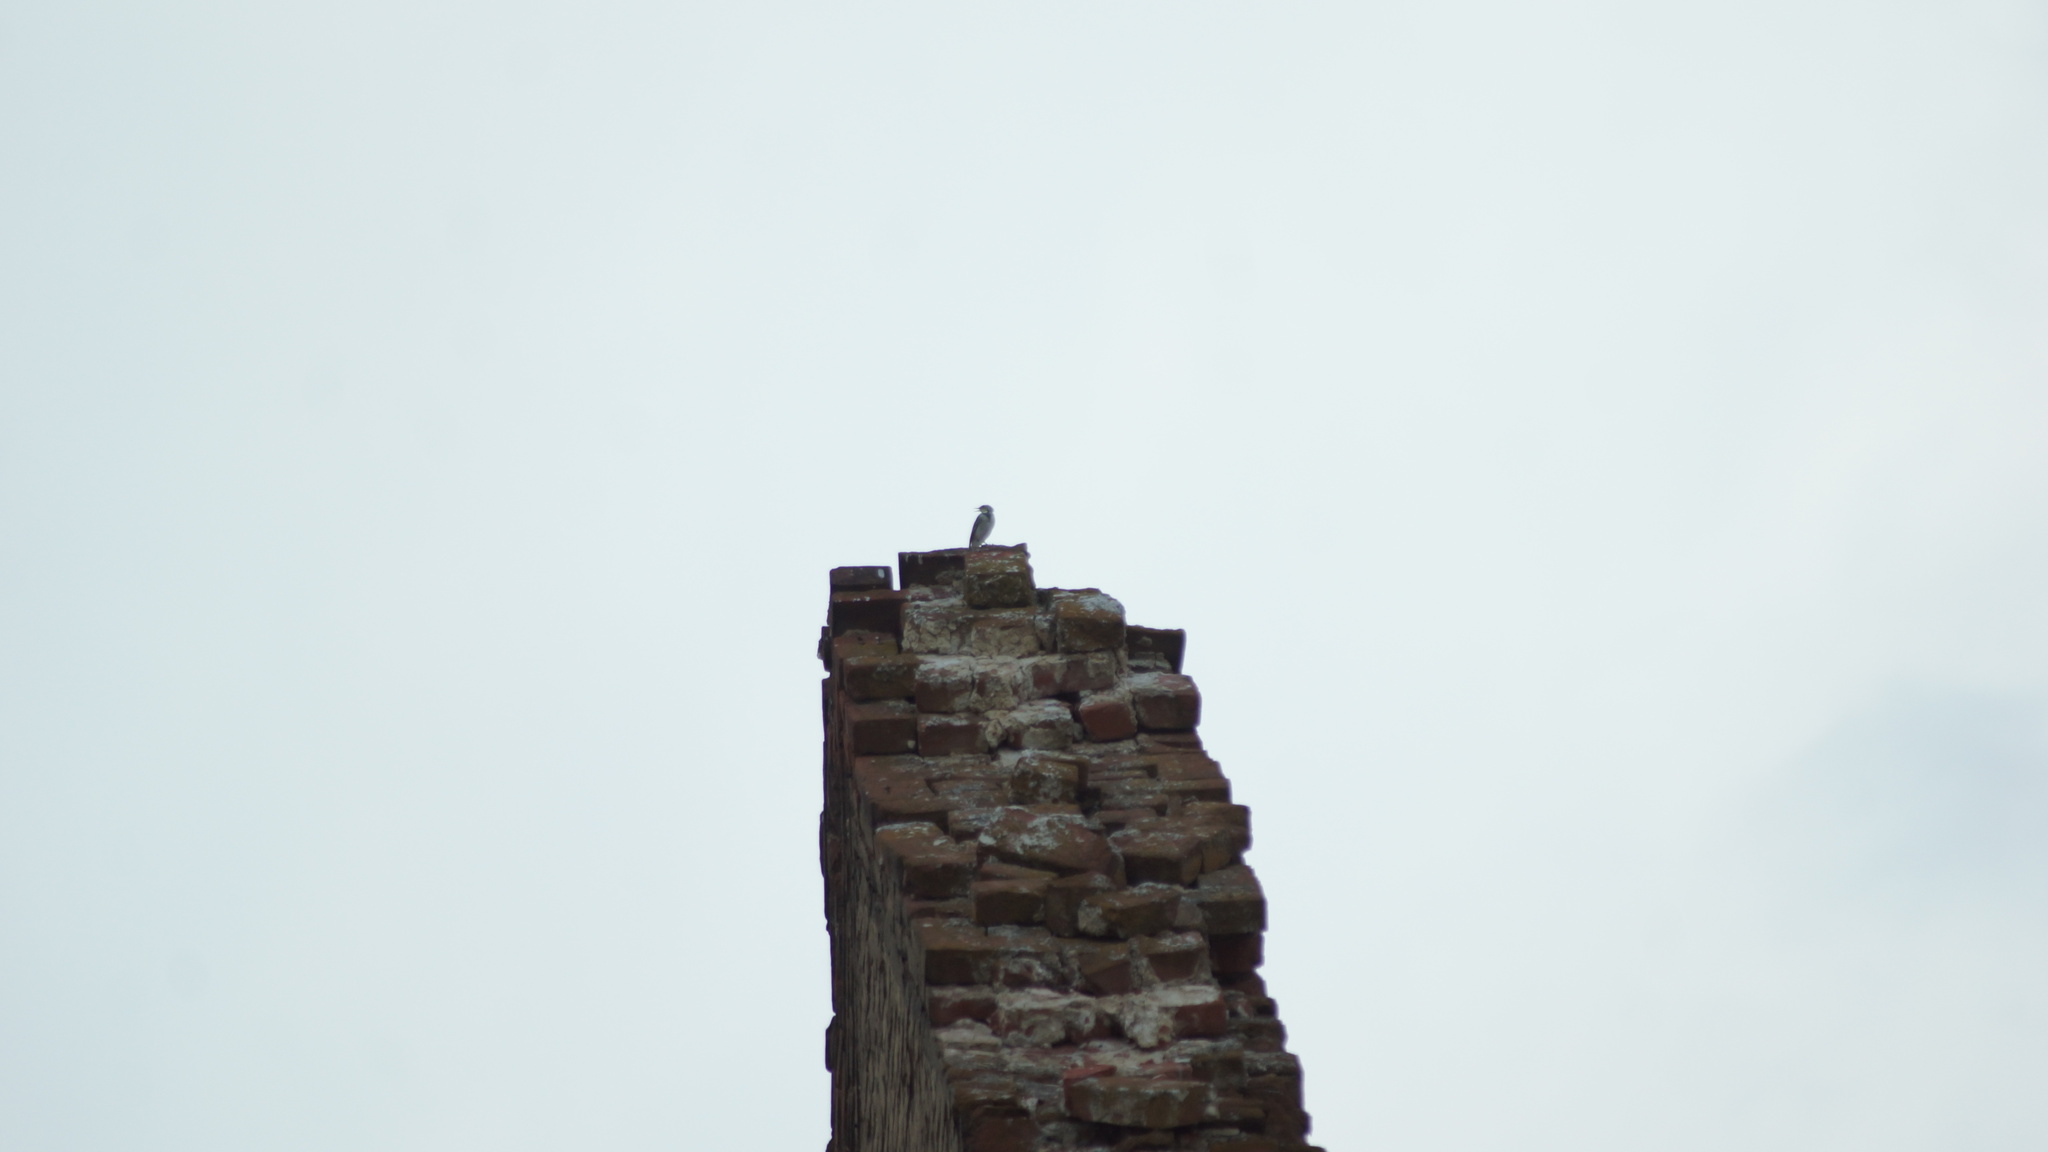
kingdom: Animalia
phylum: Chordata
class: Aves
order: Passeriformes
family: Motacillidae
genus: Motacilla
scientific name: Motacilla alba
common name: White wagtail
